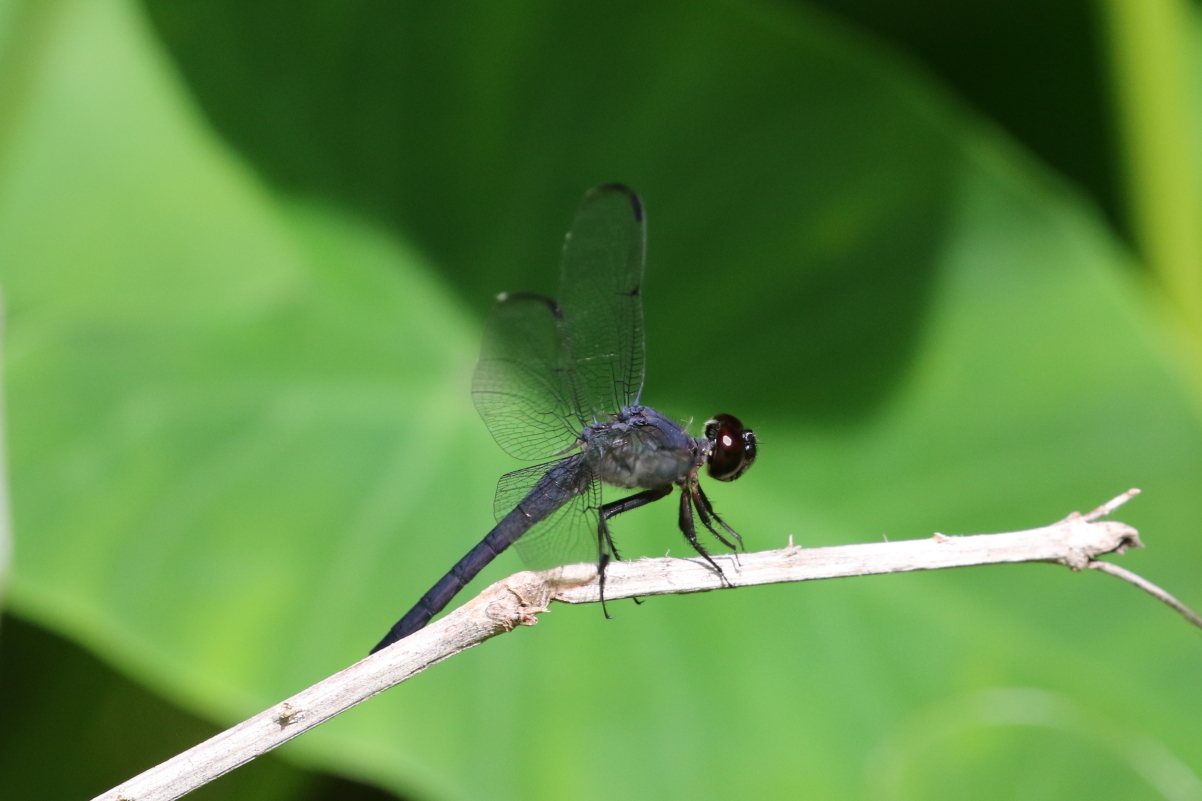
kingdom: Animalia
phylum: Arthropoda
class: Insecta
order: Odonata
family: Libellulidae
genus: Libellula
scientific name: Libellula incesta
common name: Slaty skimmer
